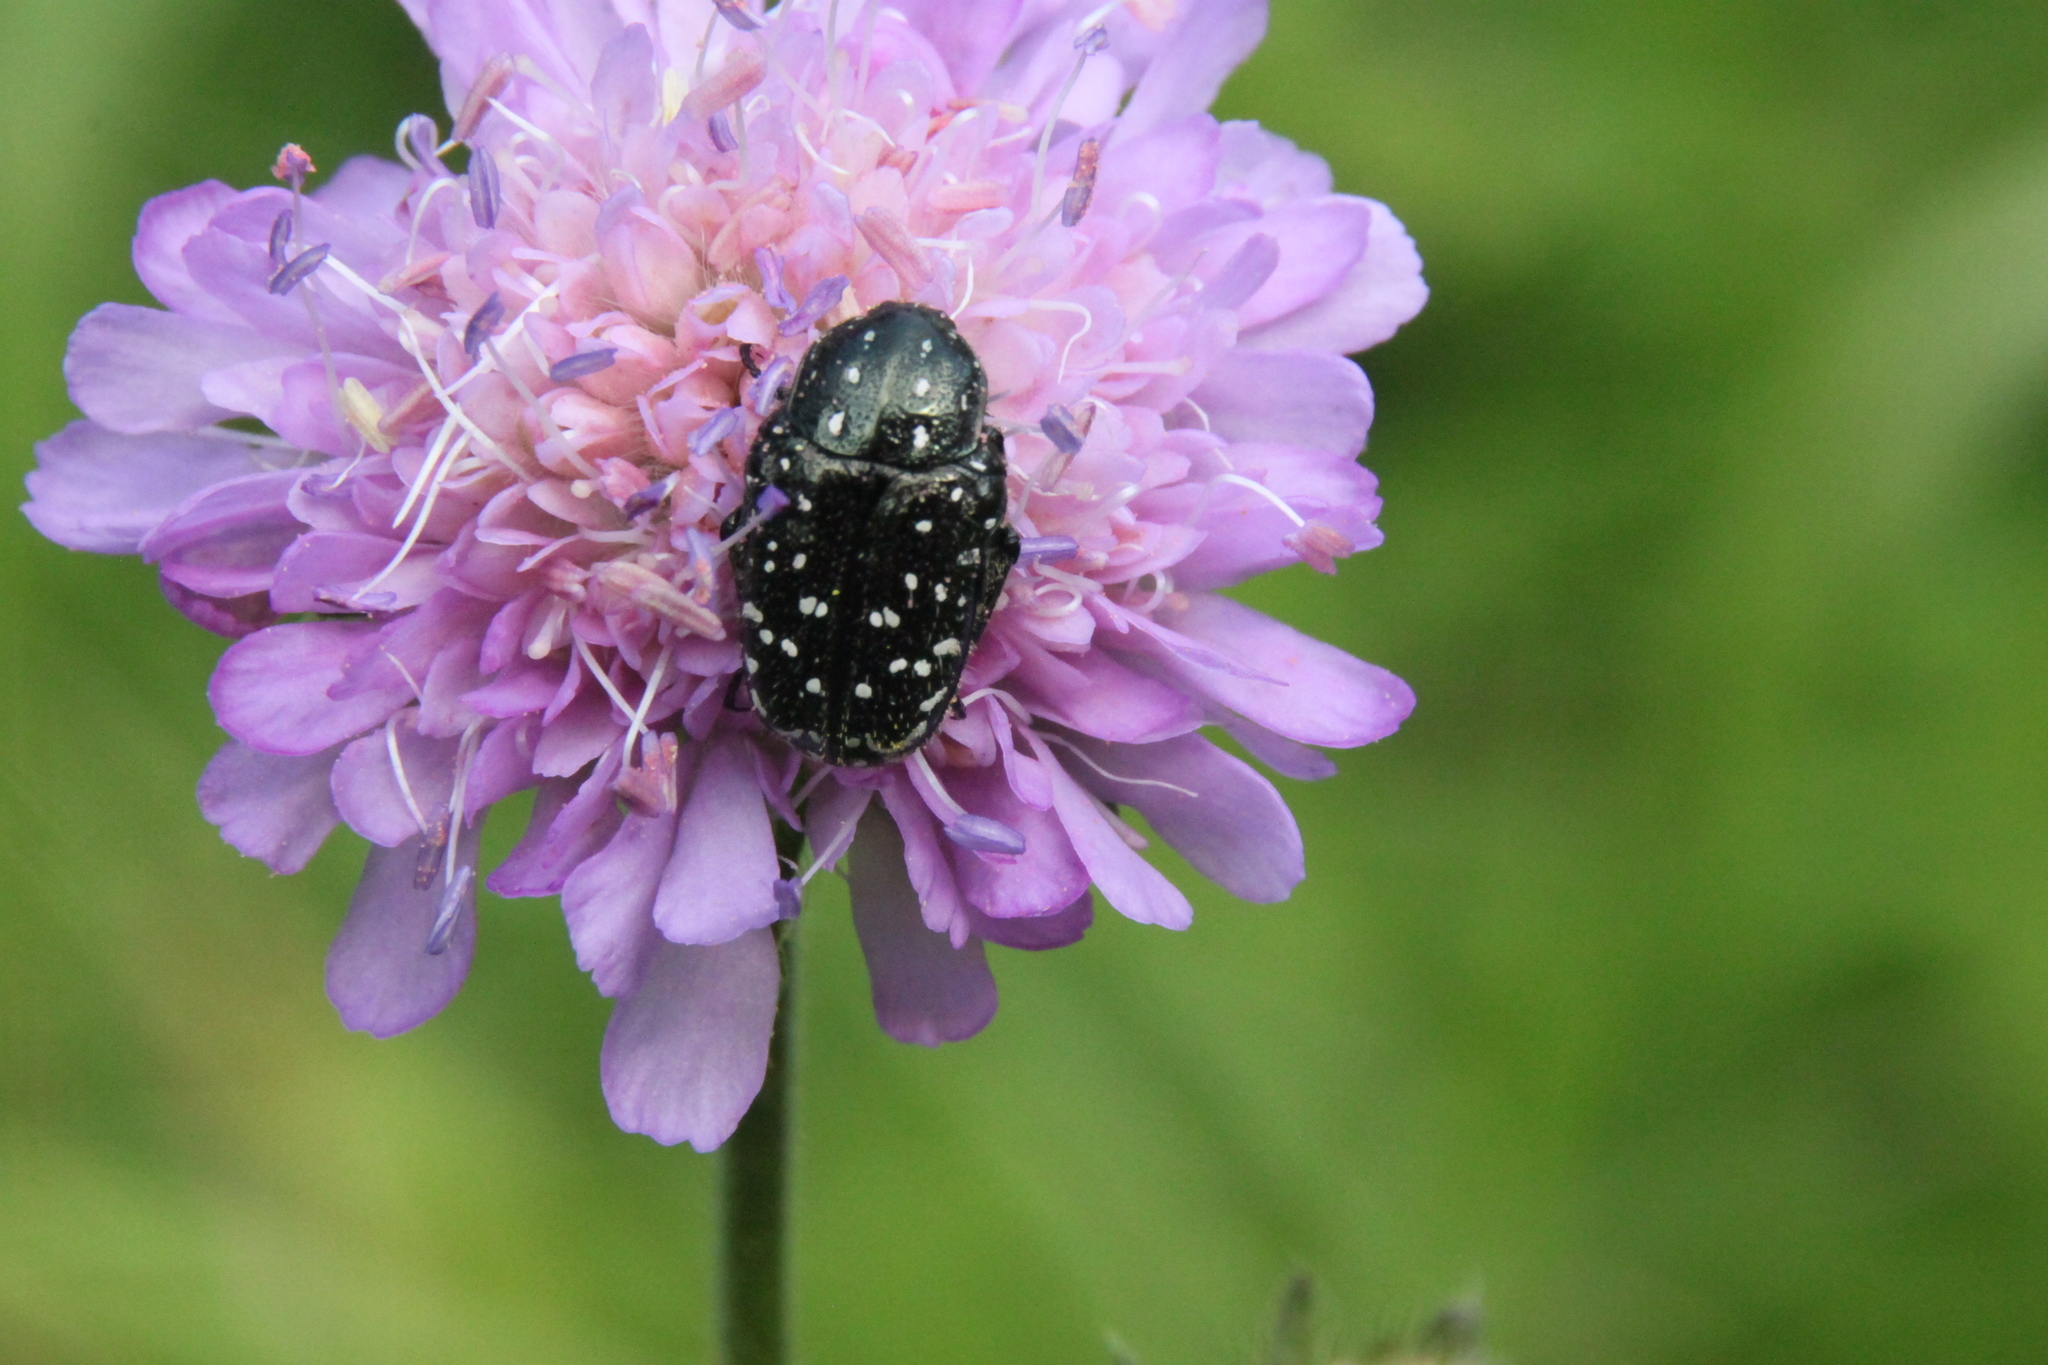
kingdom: Animalia
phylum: Arthropoda
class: Insecta
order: Coleoptera
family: Scarabaeidae
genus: Oxythyrea
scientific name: Oxythyrea funesta
